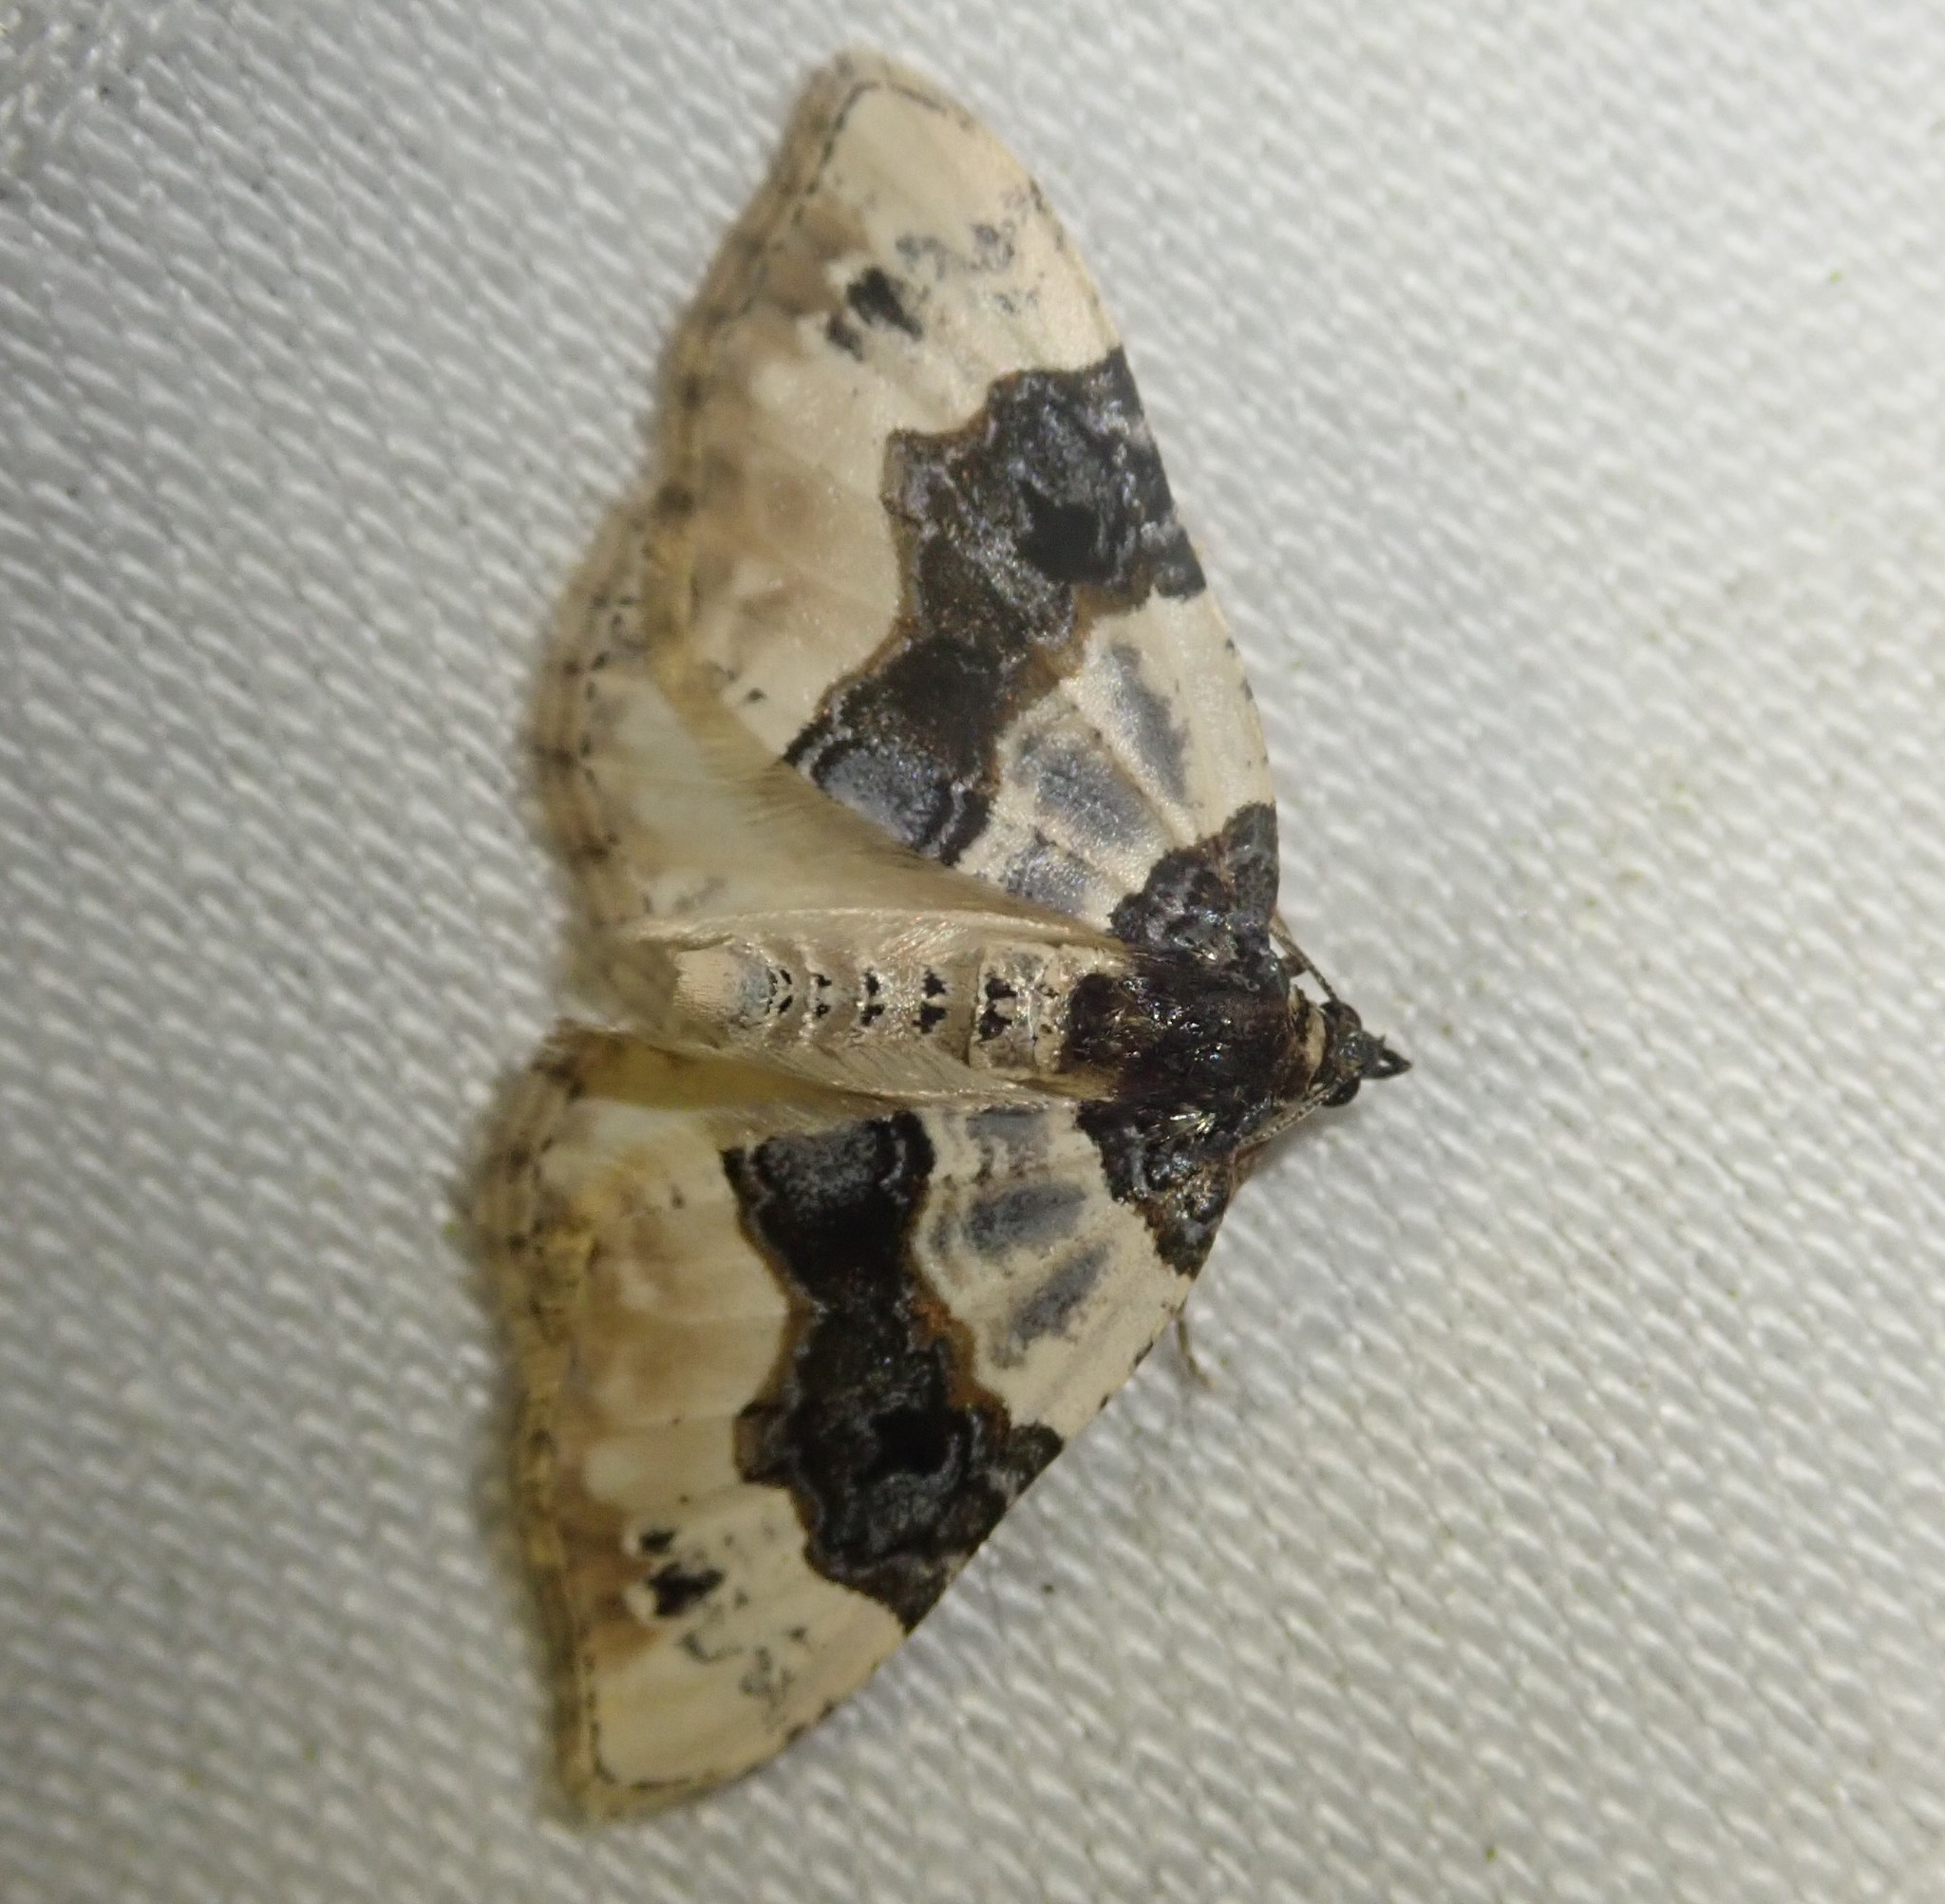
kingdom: Animalia
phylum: Arthropoda
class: Insecta
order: Lepidoptera
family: Geometridae
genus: Cosmorhoe
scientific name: Cosmorhoe ocellata
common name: Purple bar
